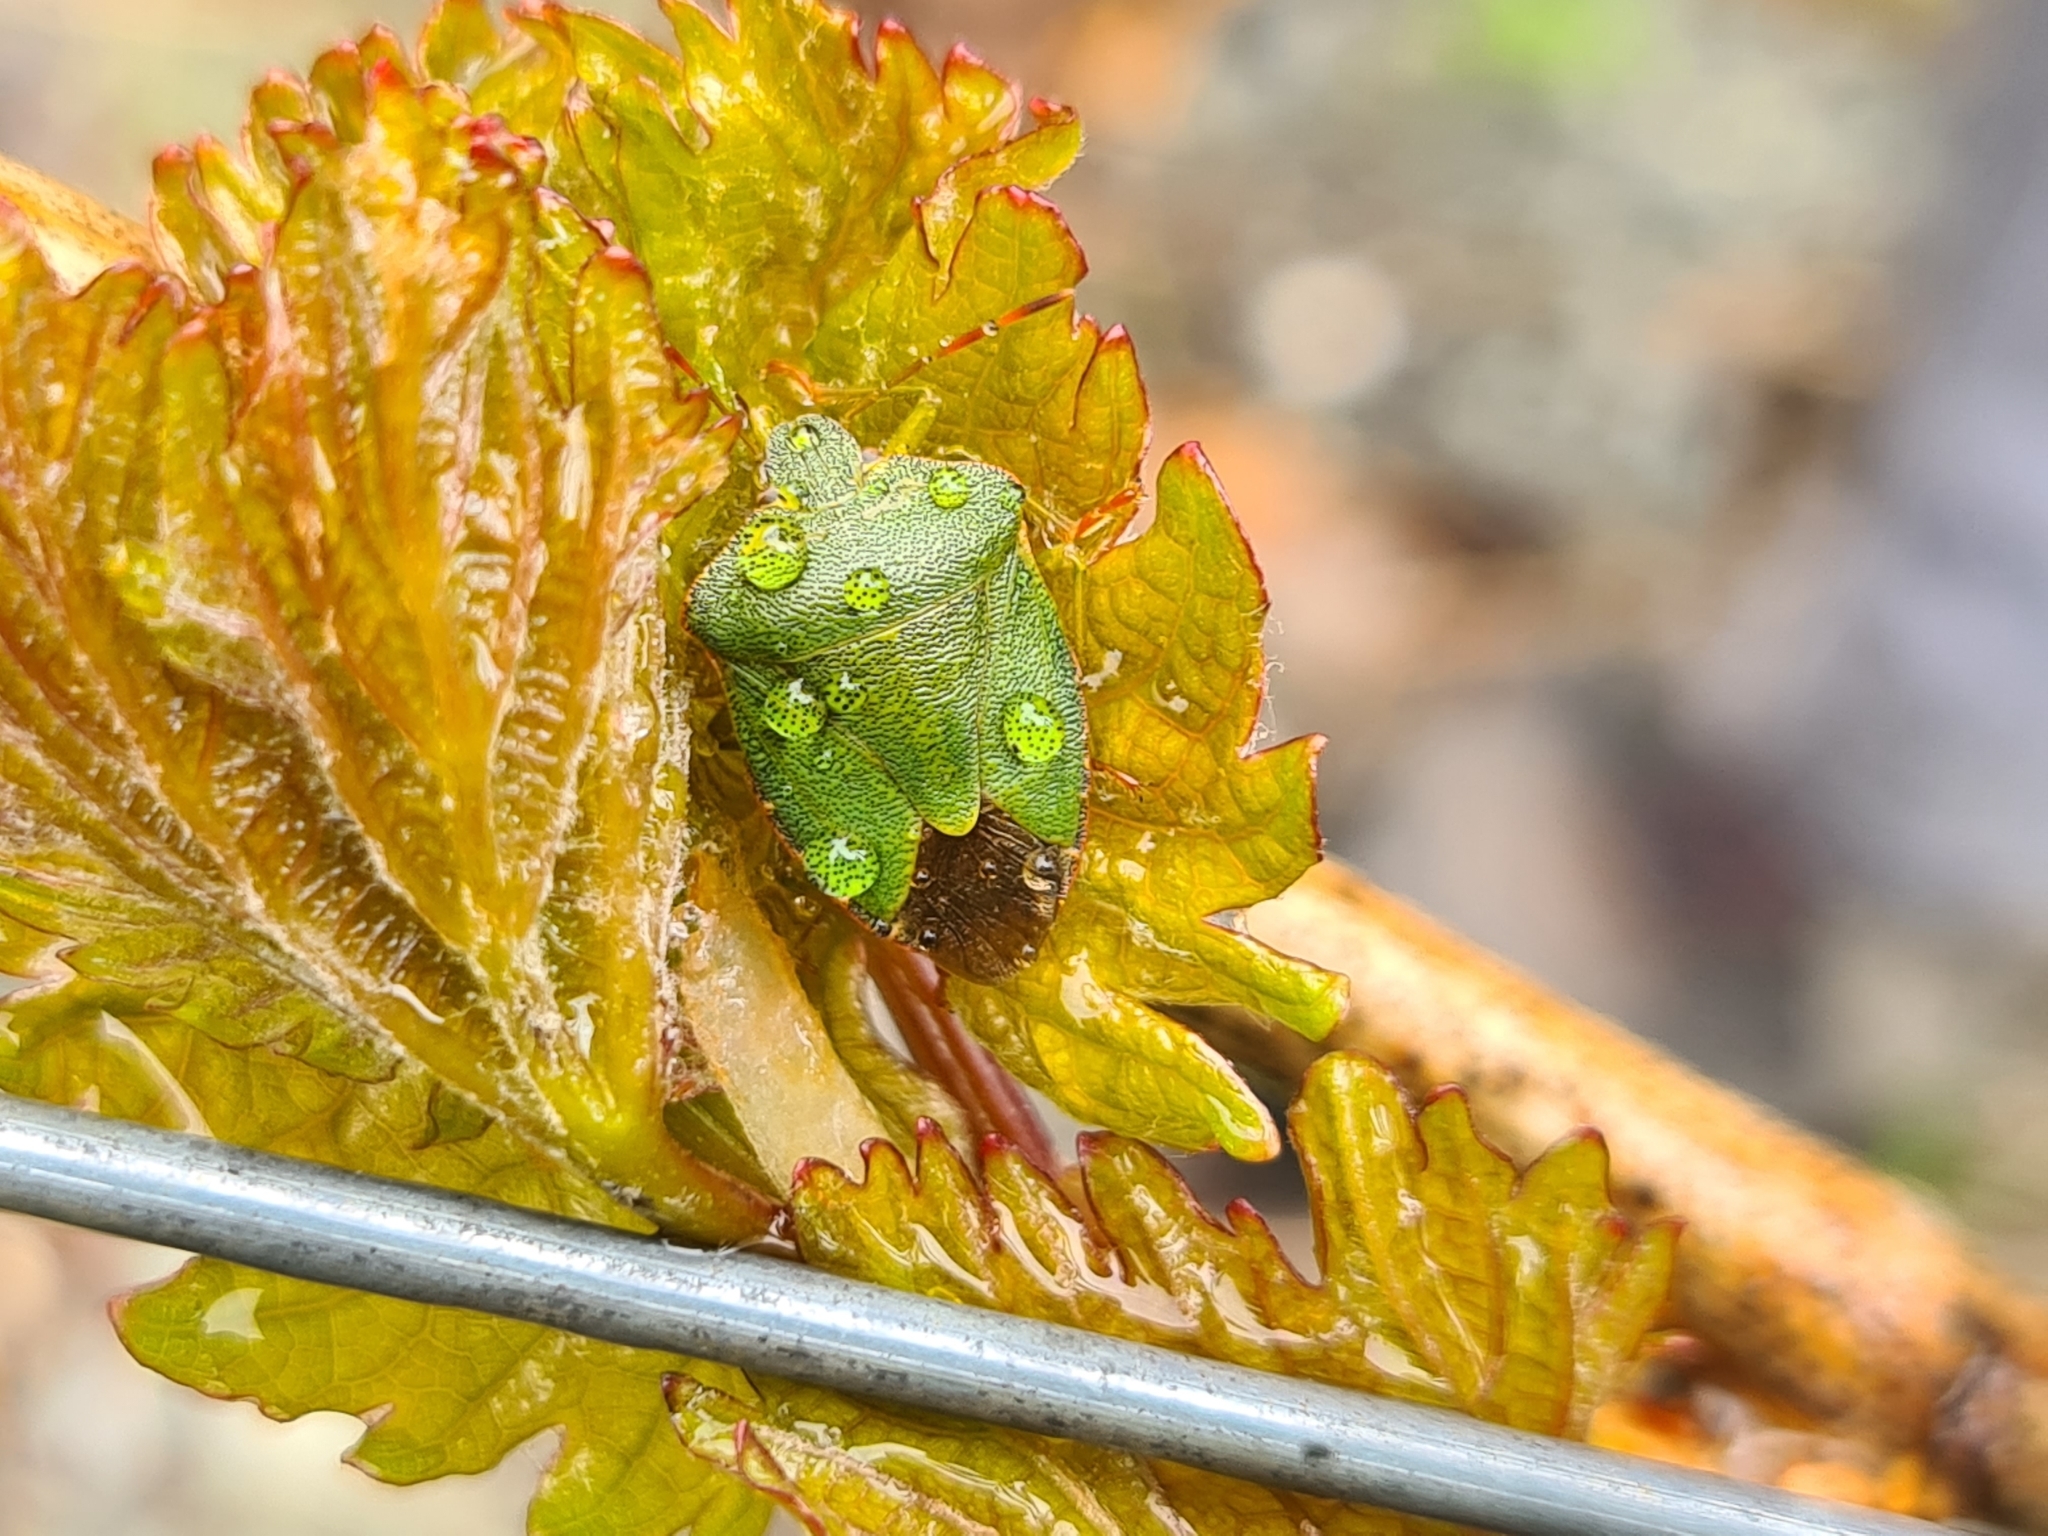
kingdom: Animalia
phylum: Arthropoda
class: Insecta
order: Hemiptera
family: Pentatomidae
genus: Palomena
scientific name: Palomena prasina
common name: Green shieldbug
